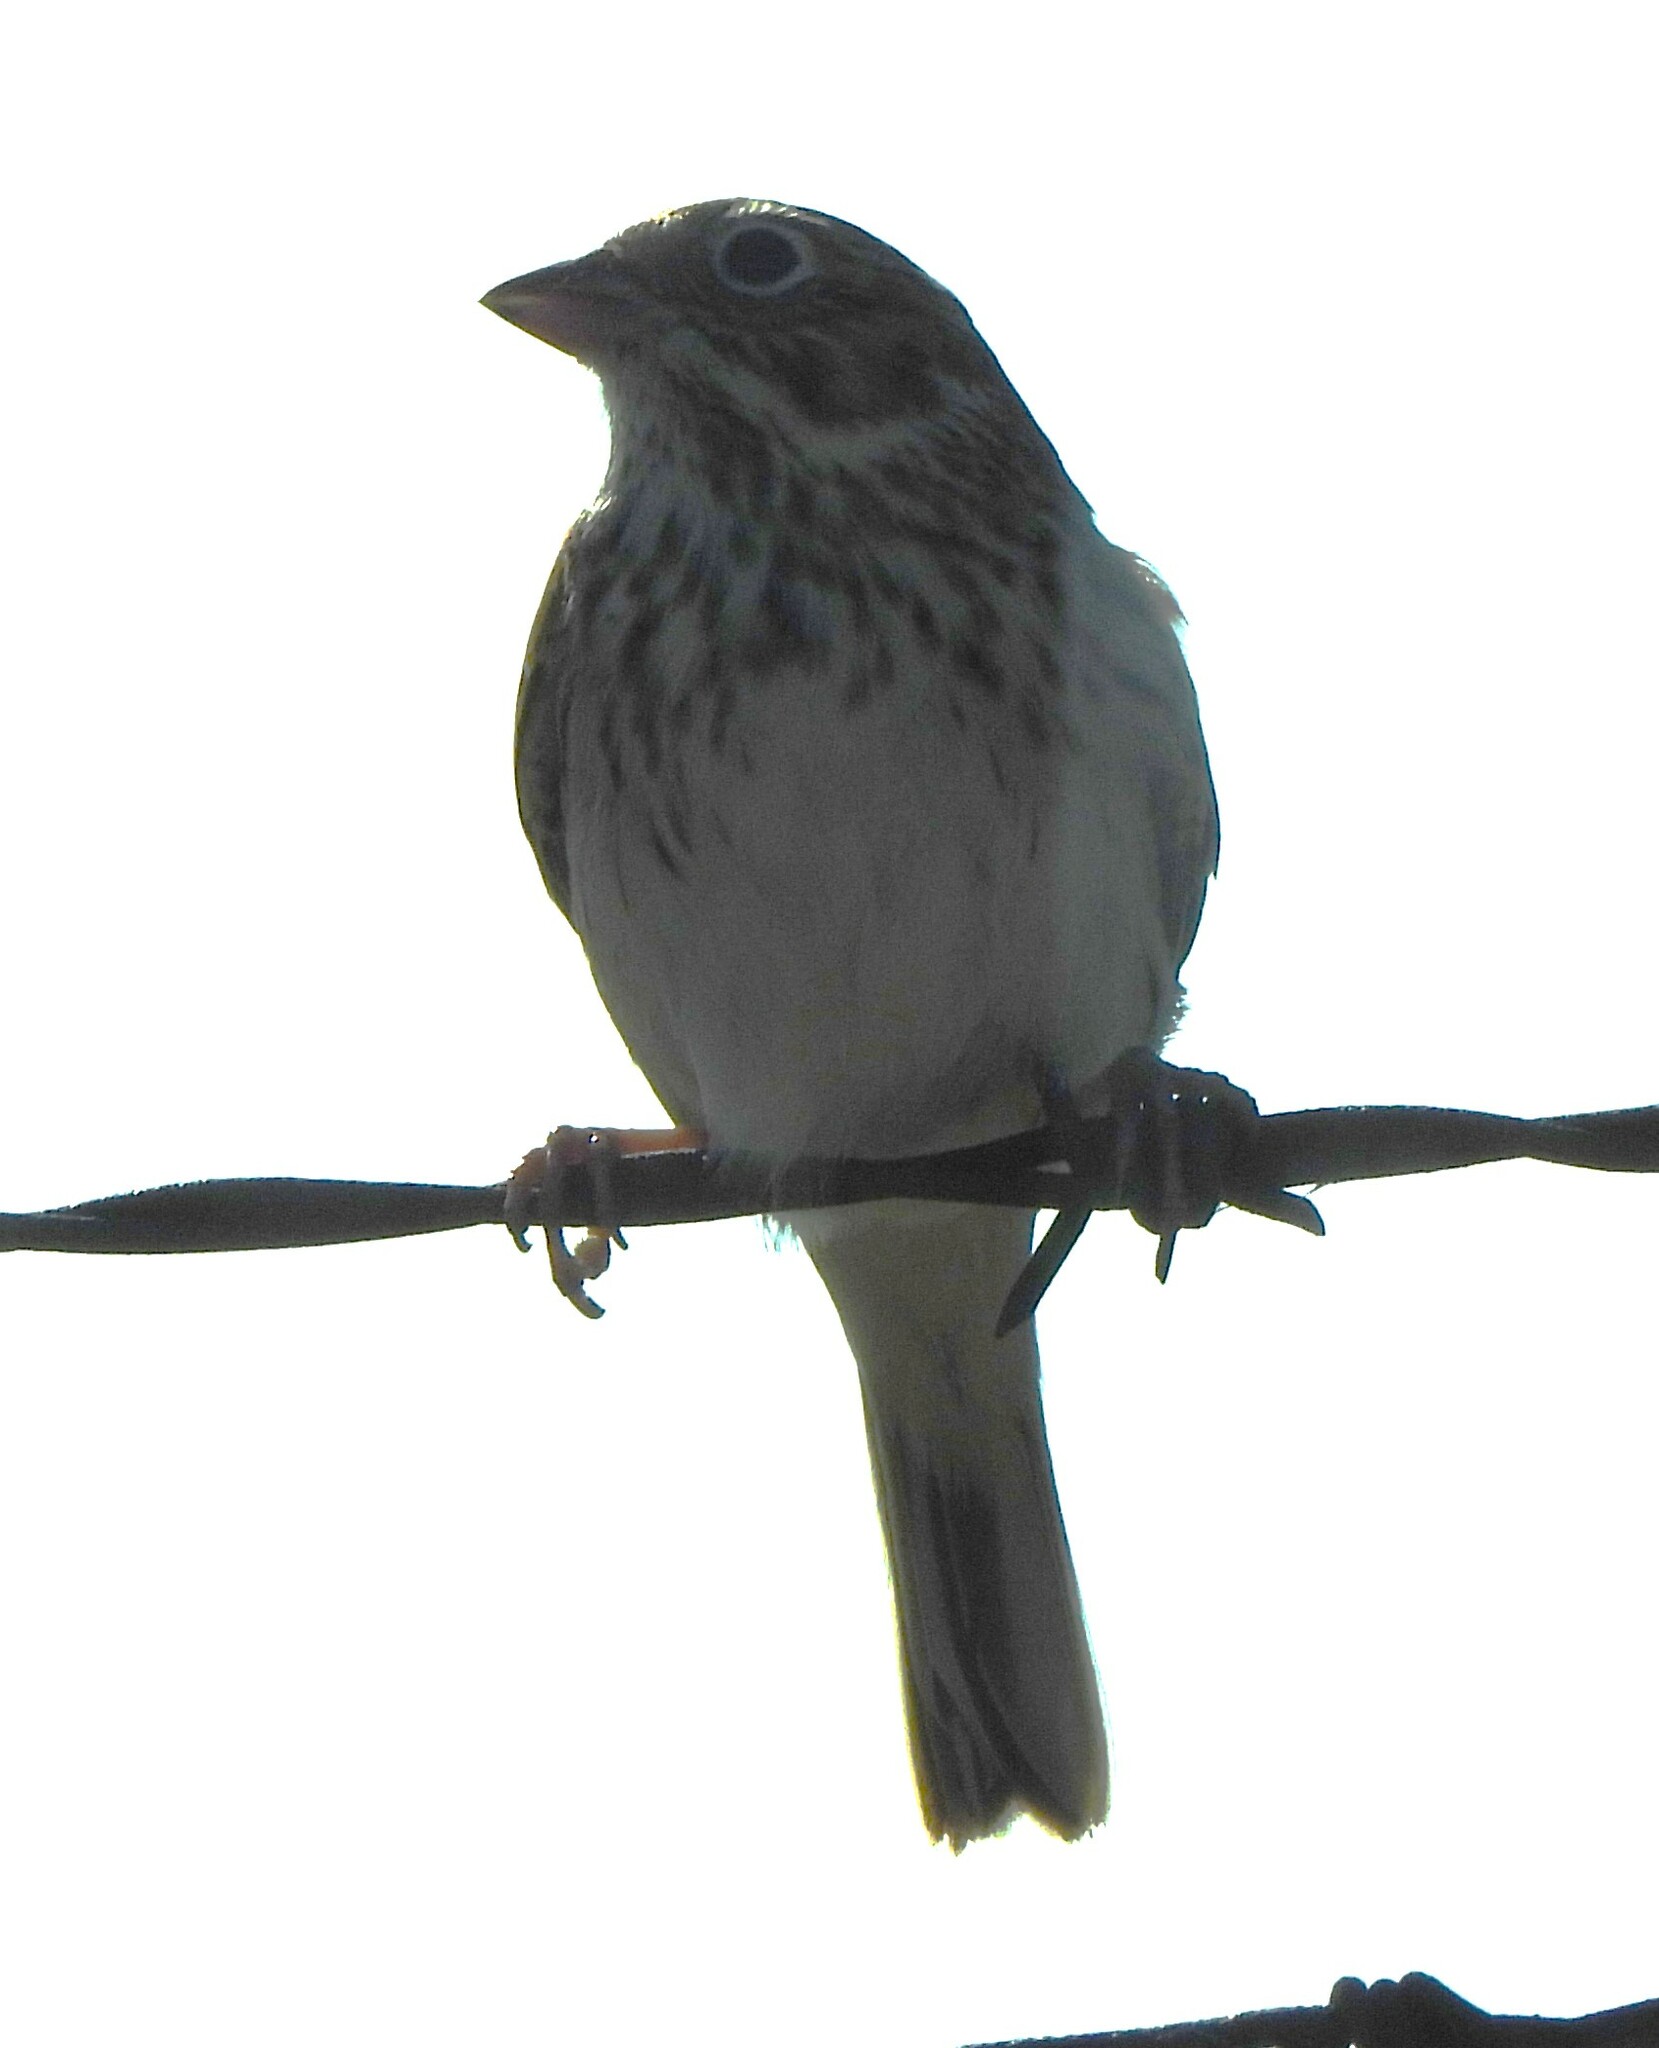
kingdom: Animalia
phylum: Chordata
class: Aves
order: Passeriformes
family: Passerellidae
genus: Pooecetes
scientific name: Pooecetes gramineus
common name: Vesper sparrow
